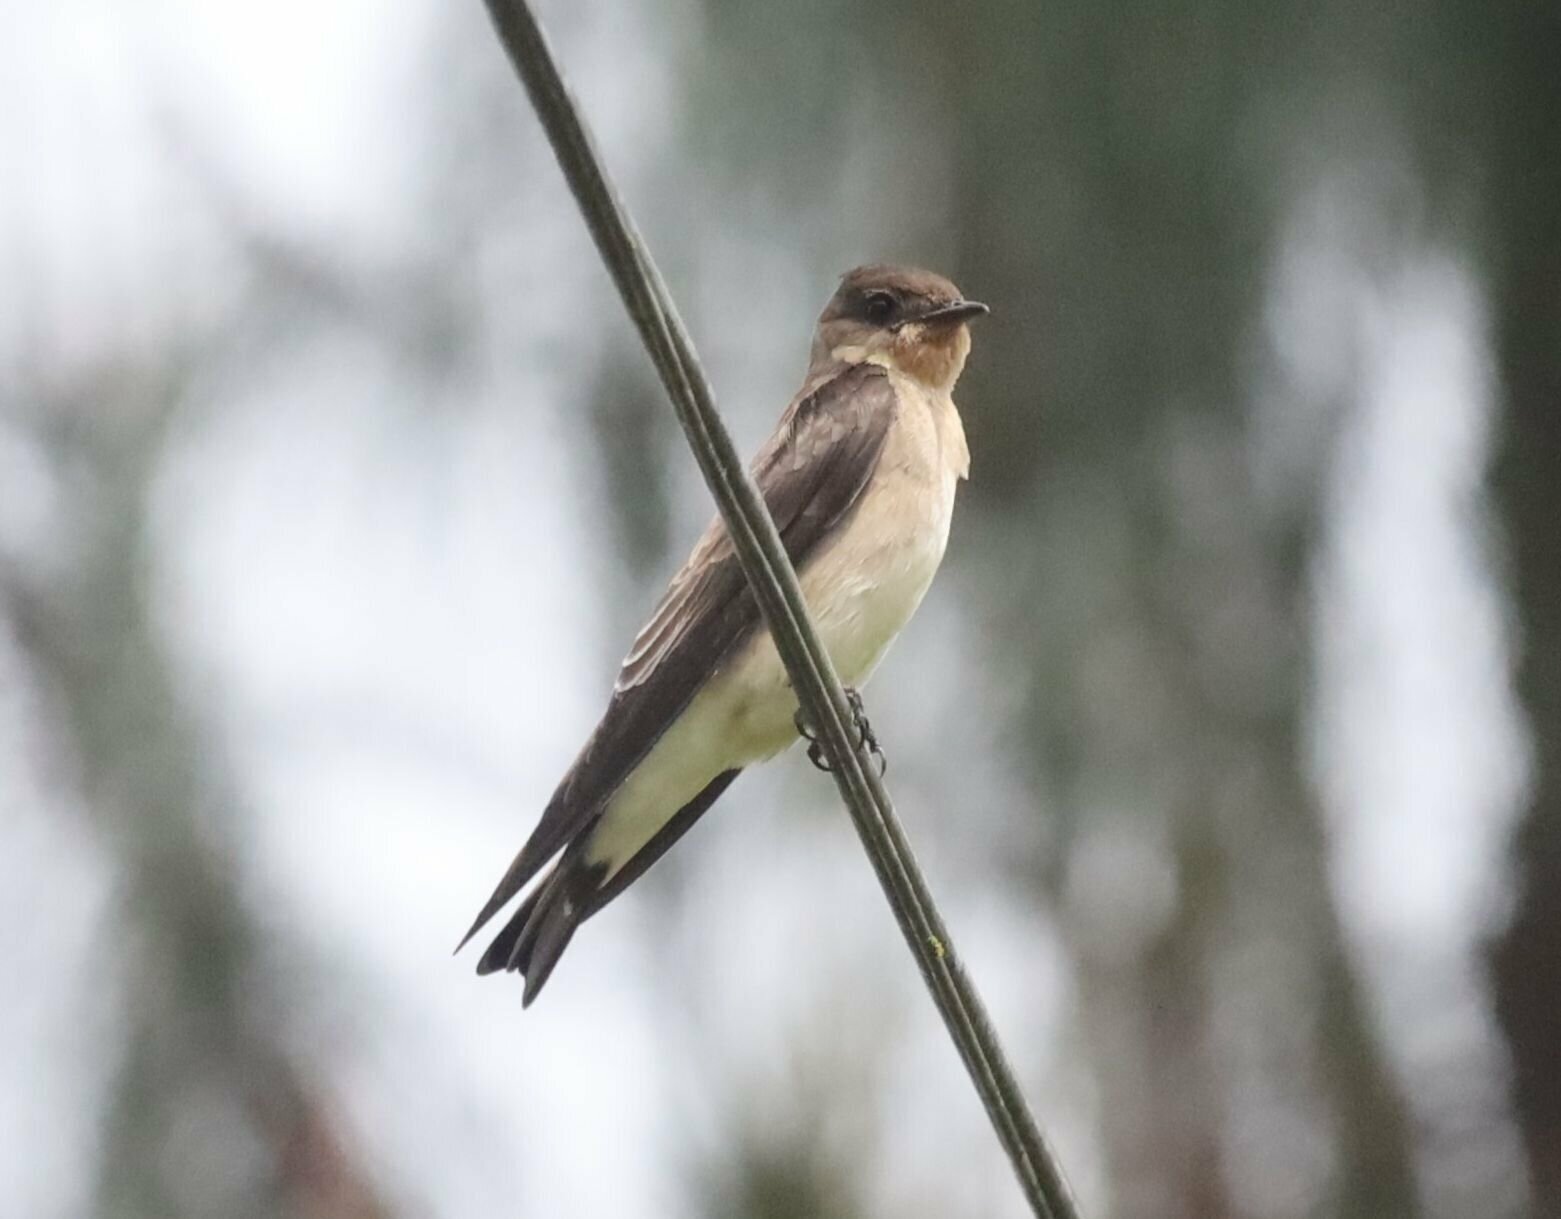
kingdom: Animalia
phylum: Chordata
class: Aves
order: Passeriformes
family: Hirundinidae
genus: Stelgidopteryx
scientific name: Stelgidopteryx ruficollis
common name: Southern rough-winged swallow
